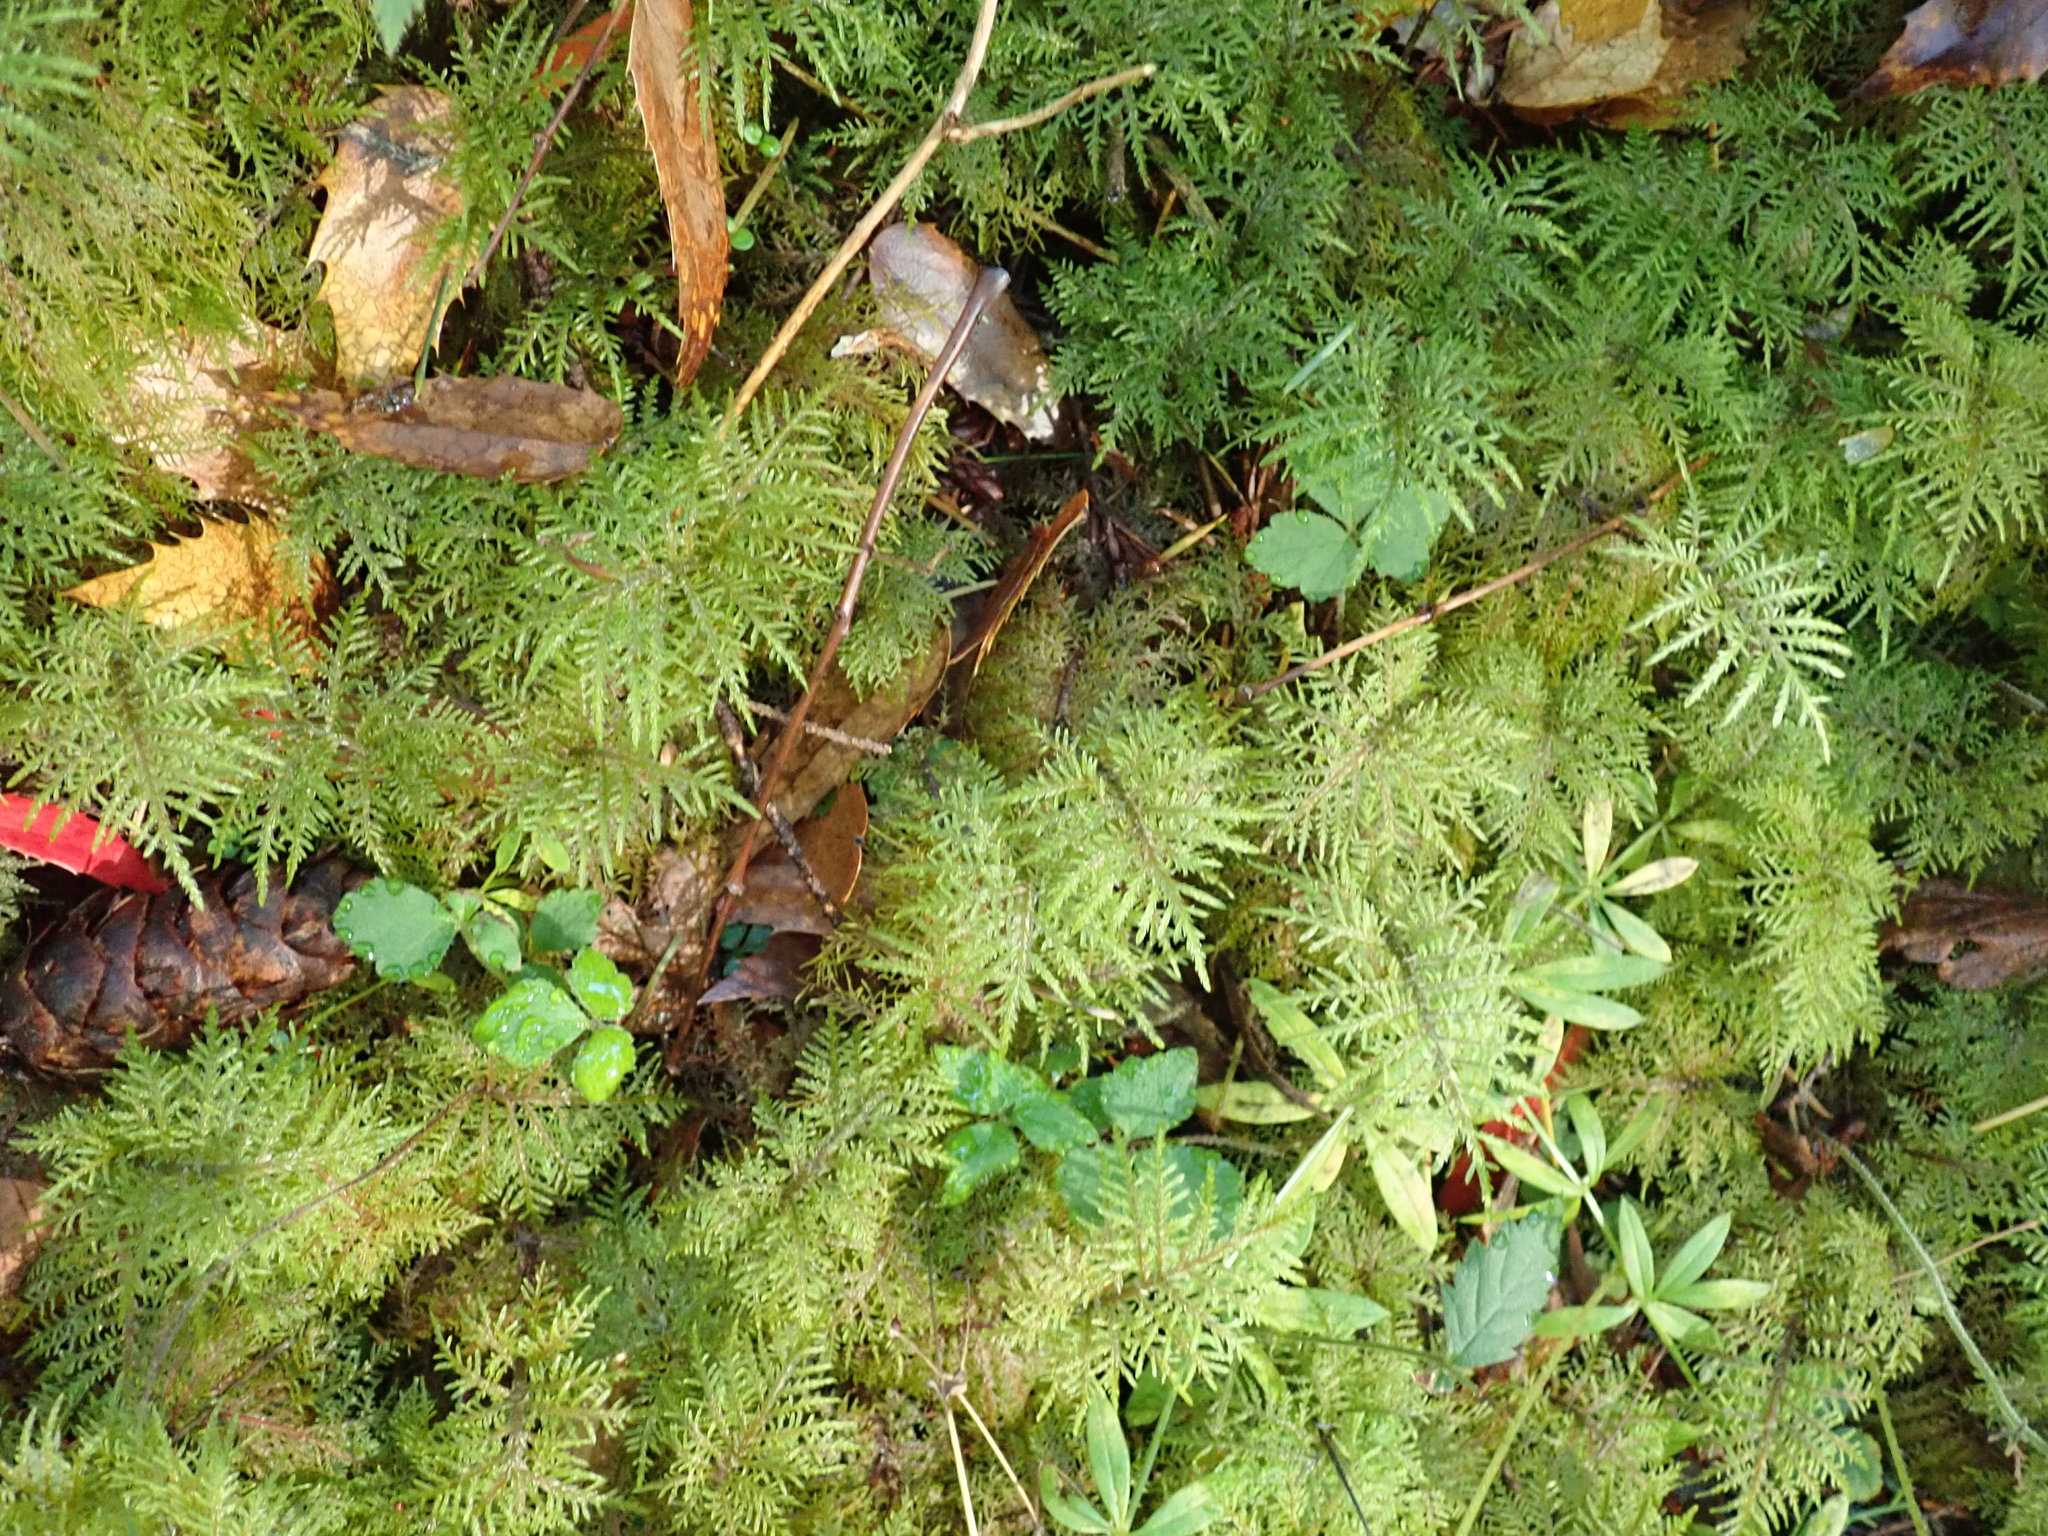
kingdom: Plantae
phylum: Bryophyta
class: Bryopsida
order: Hypnales
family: Hylocomiaceae
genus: Hylocomium
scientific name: Hylocomium splendens
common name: Stairstep moss
